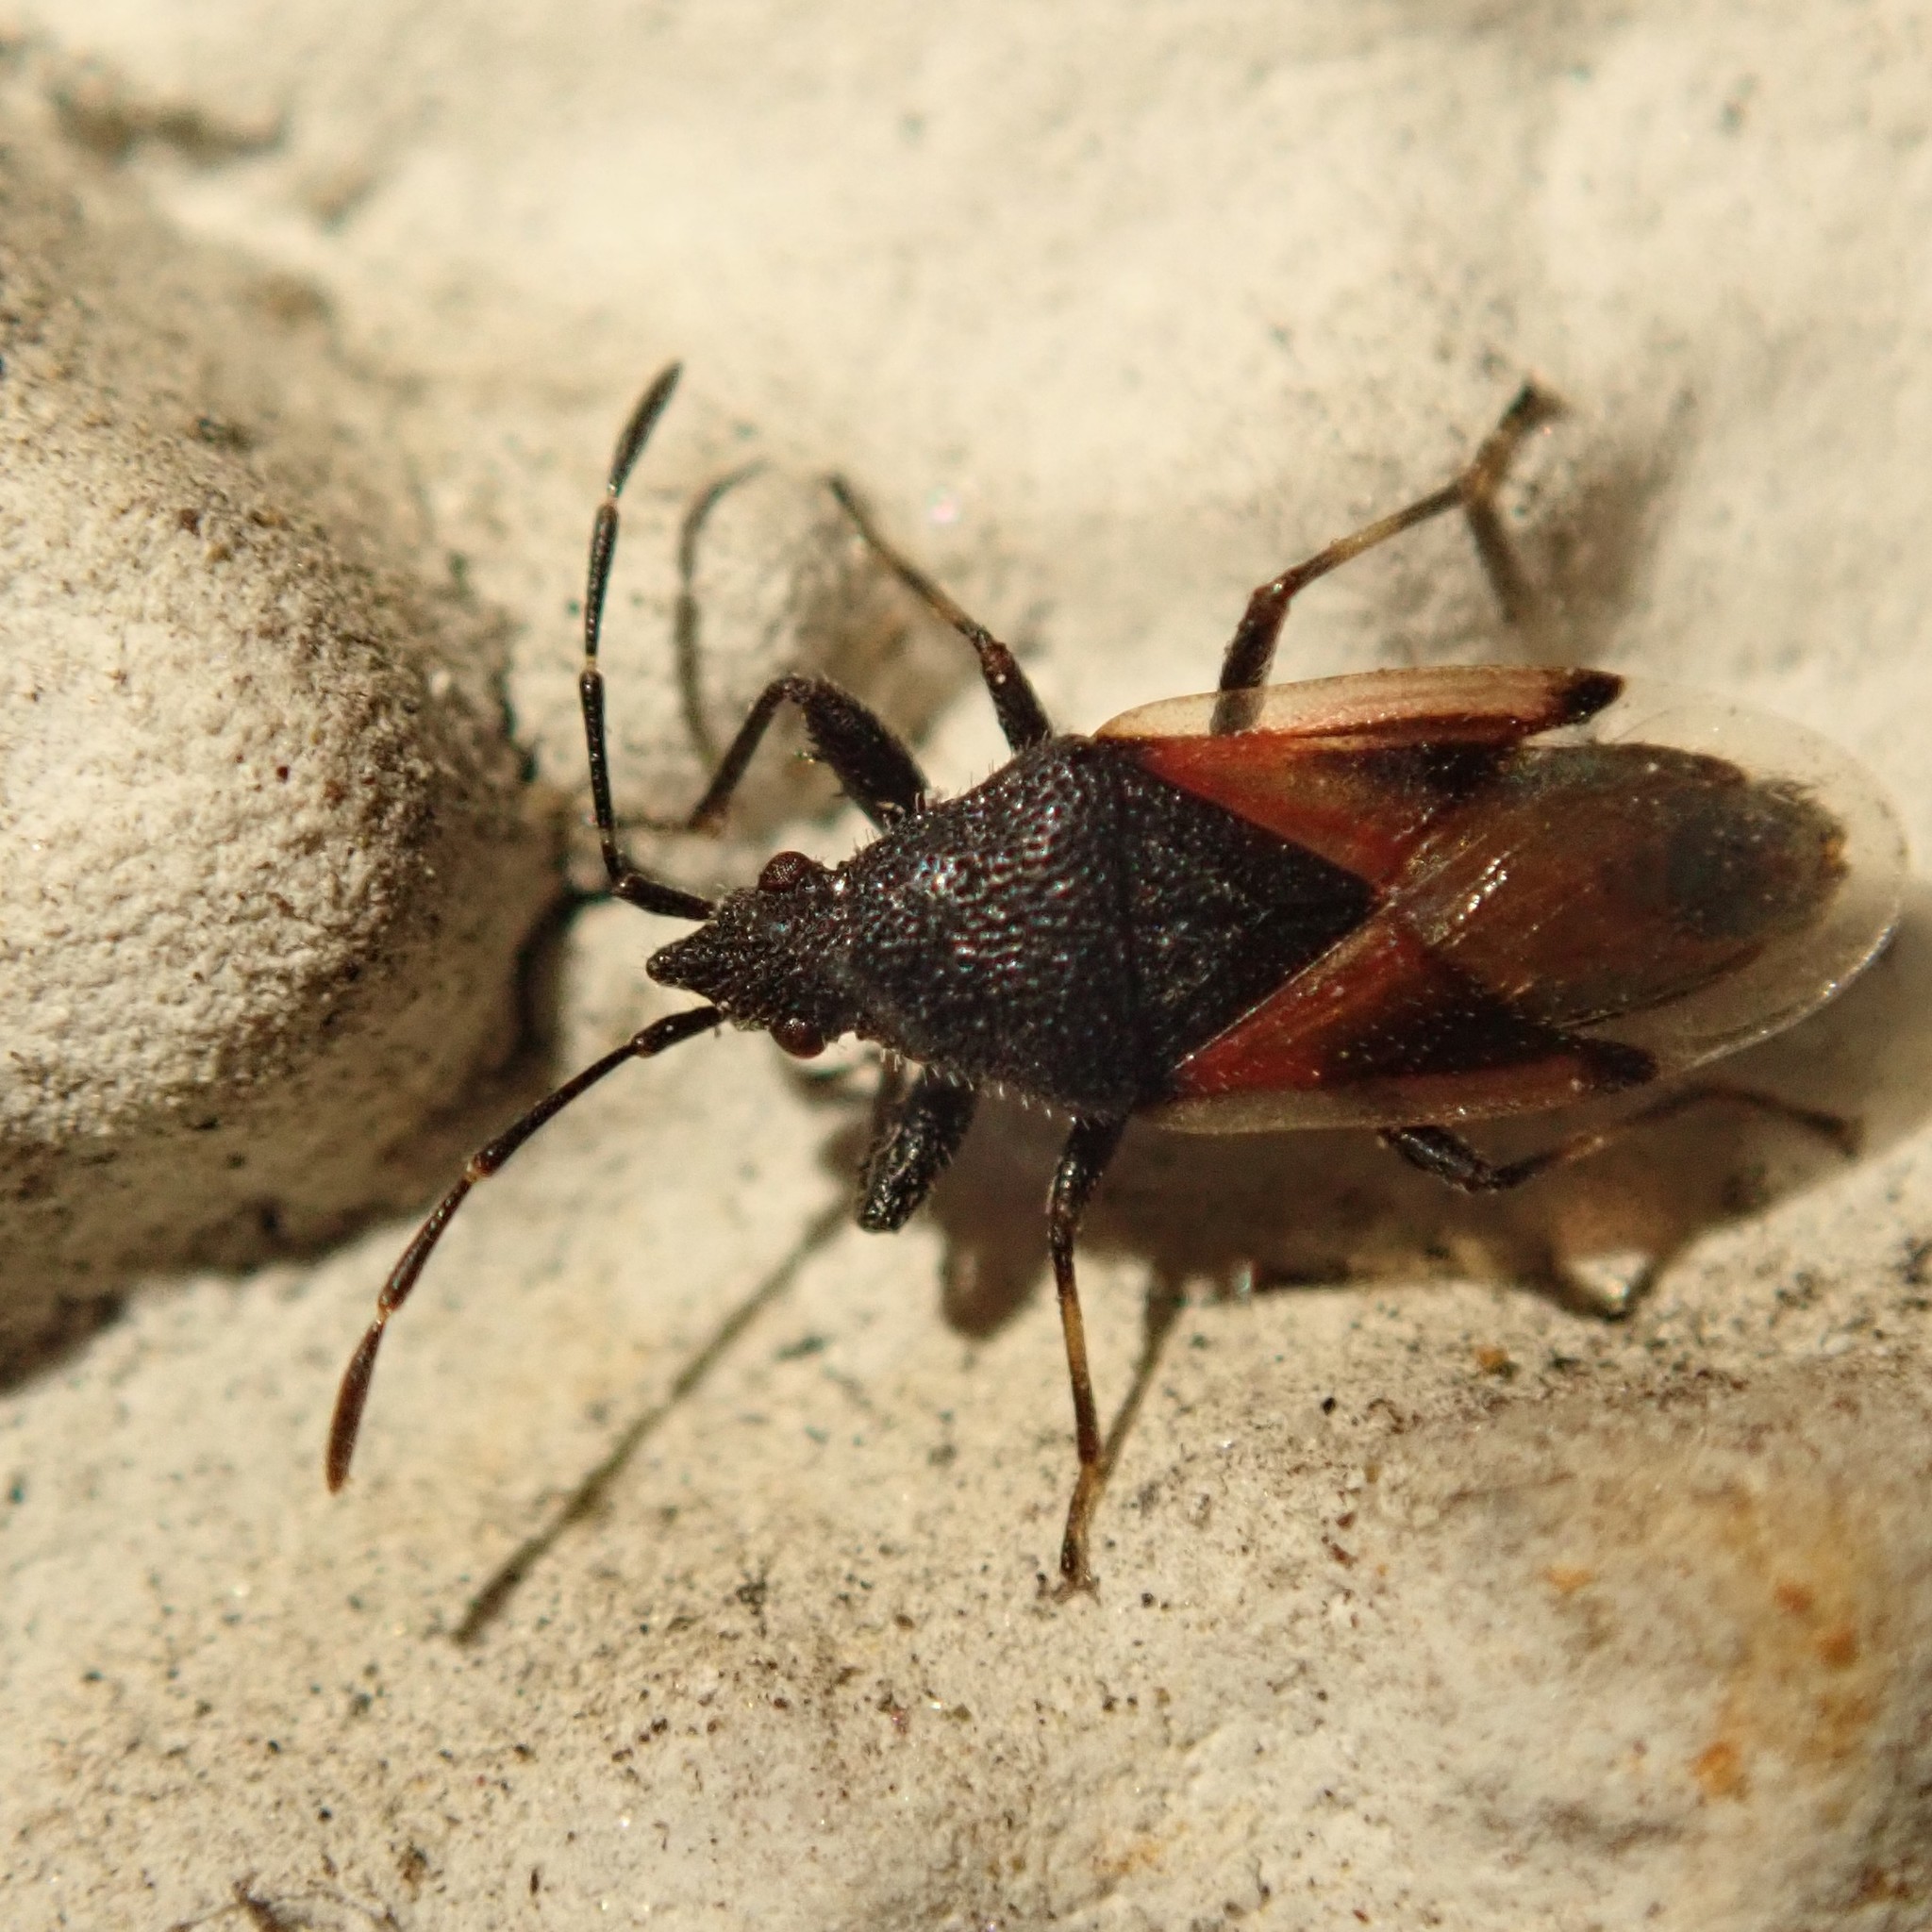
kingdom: Animalia
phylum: Arthropoda
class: Insecta
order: Hemiptera
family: Oxycarenidae
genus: Oxycarenus
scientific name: Oxycarenus lavaterae
